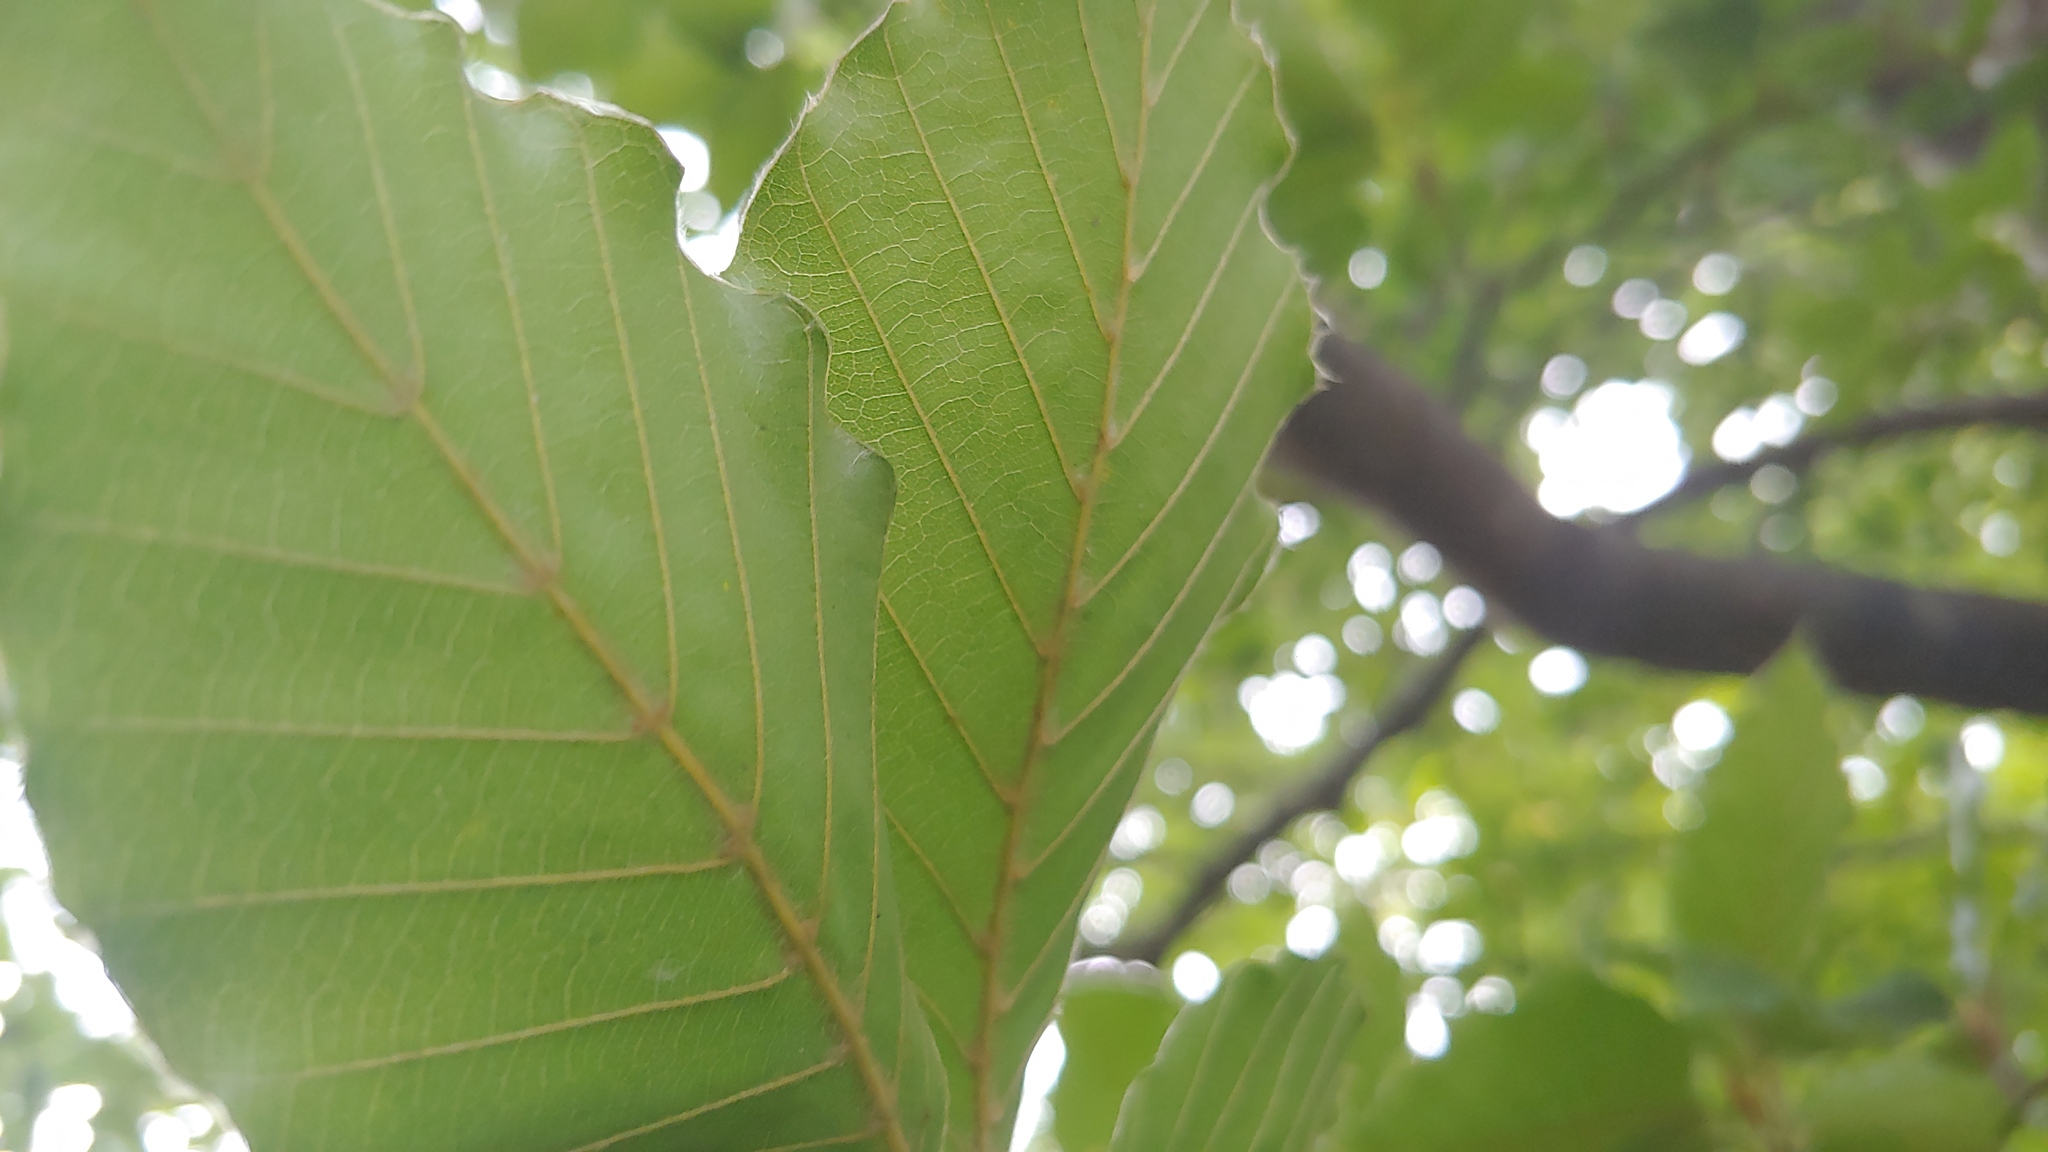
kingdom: Plantae
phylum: Tracheophyta
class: Magnoliopsida
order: Fagales
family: Fagaceae
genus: Fagus
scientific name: Fagus sylvatica
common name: Beech
